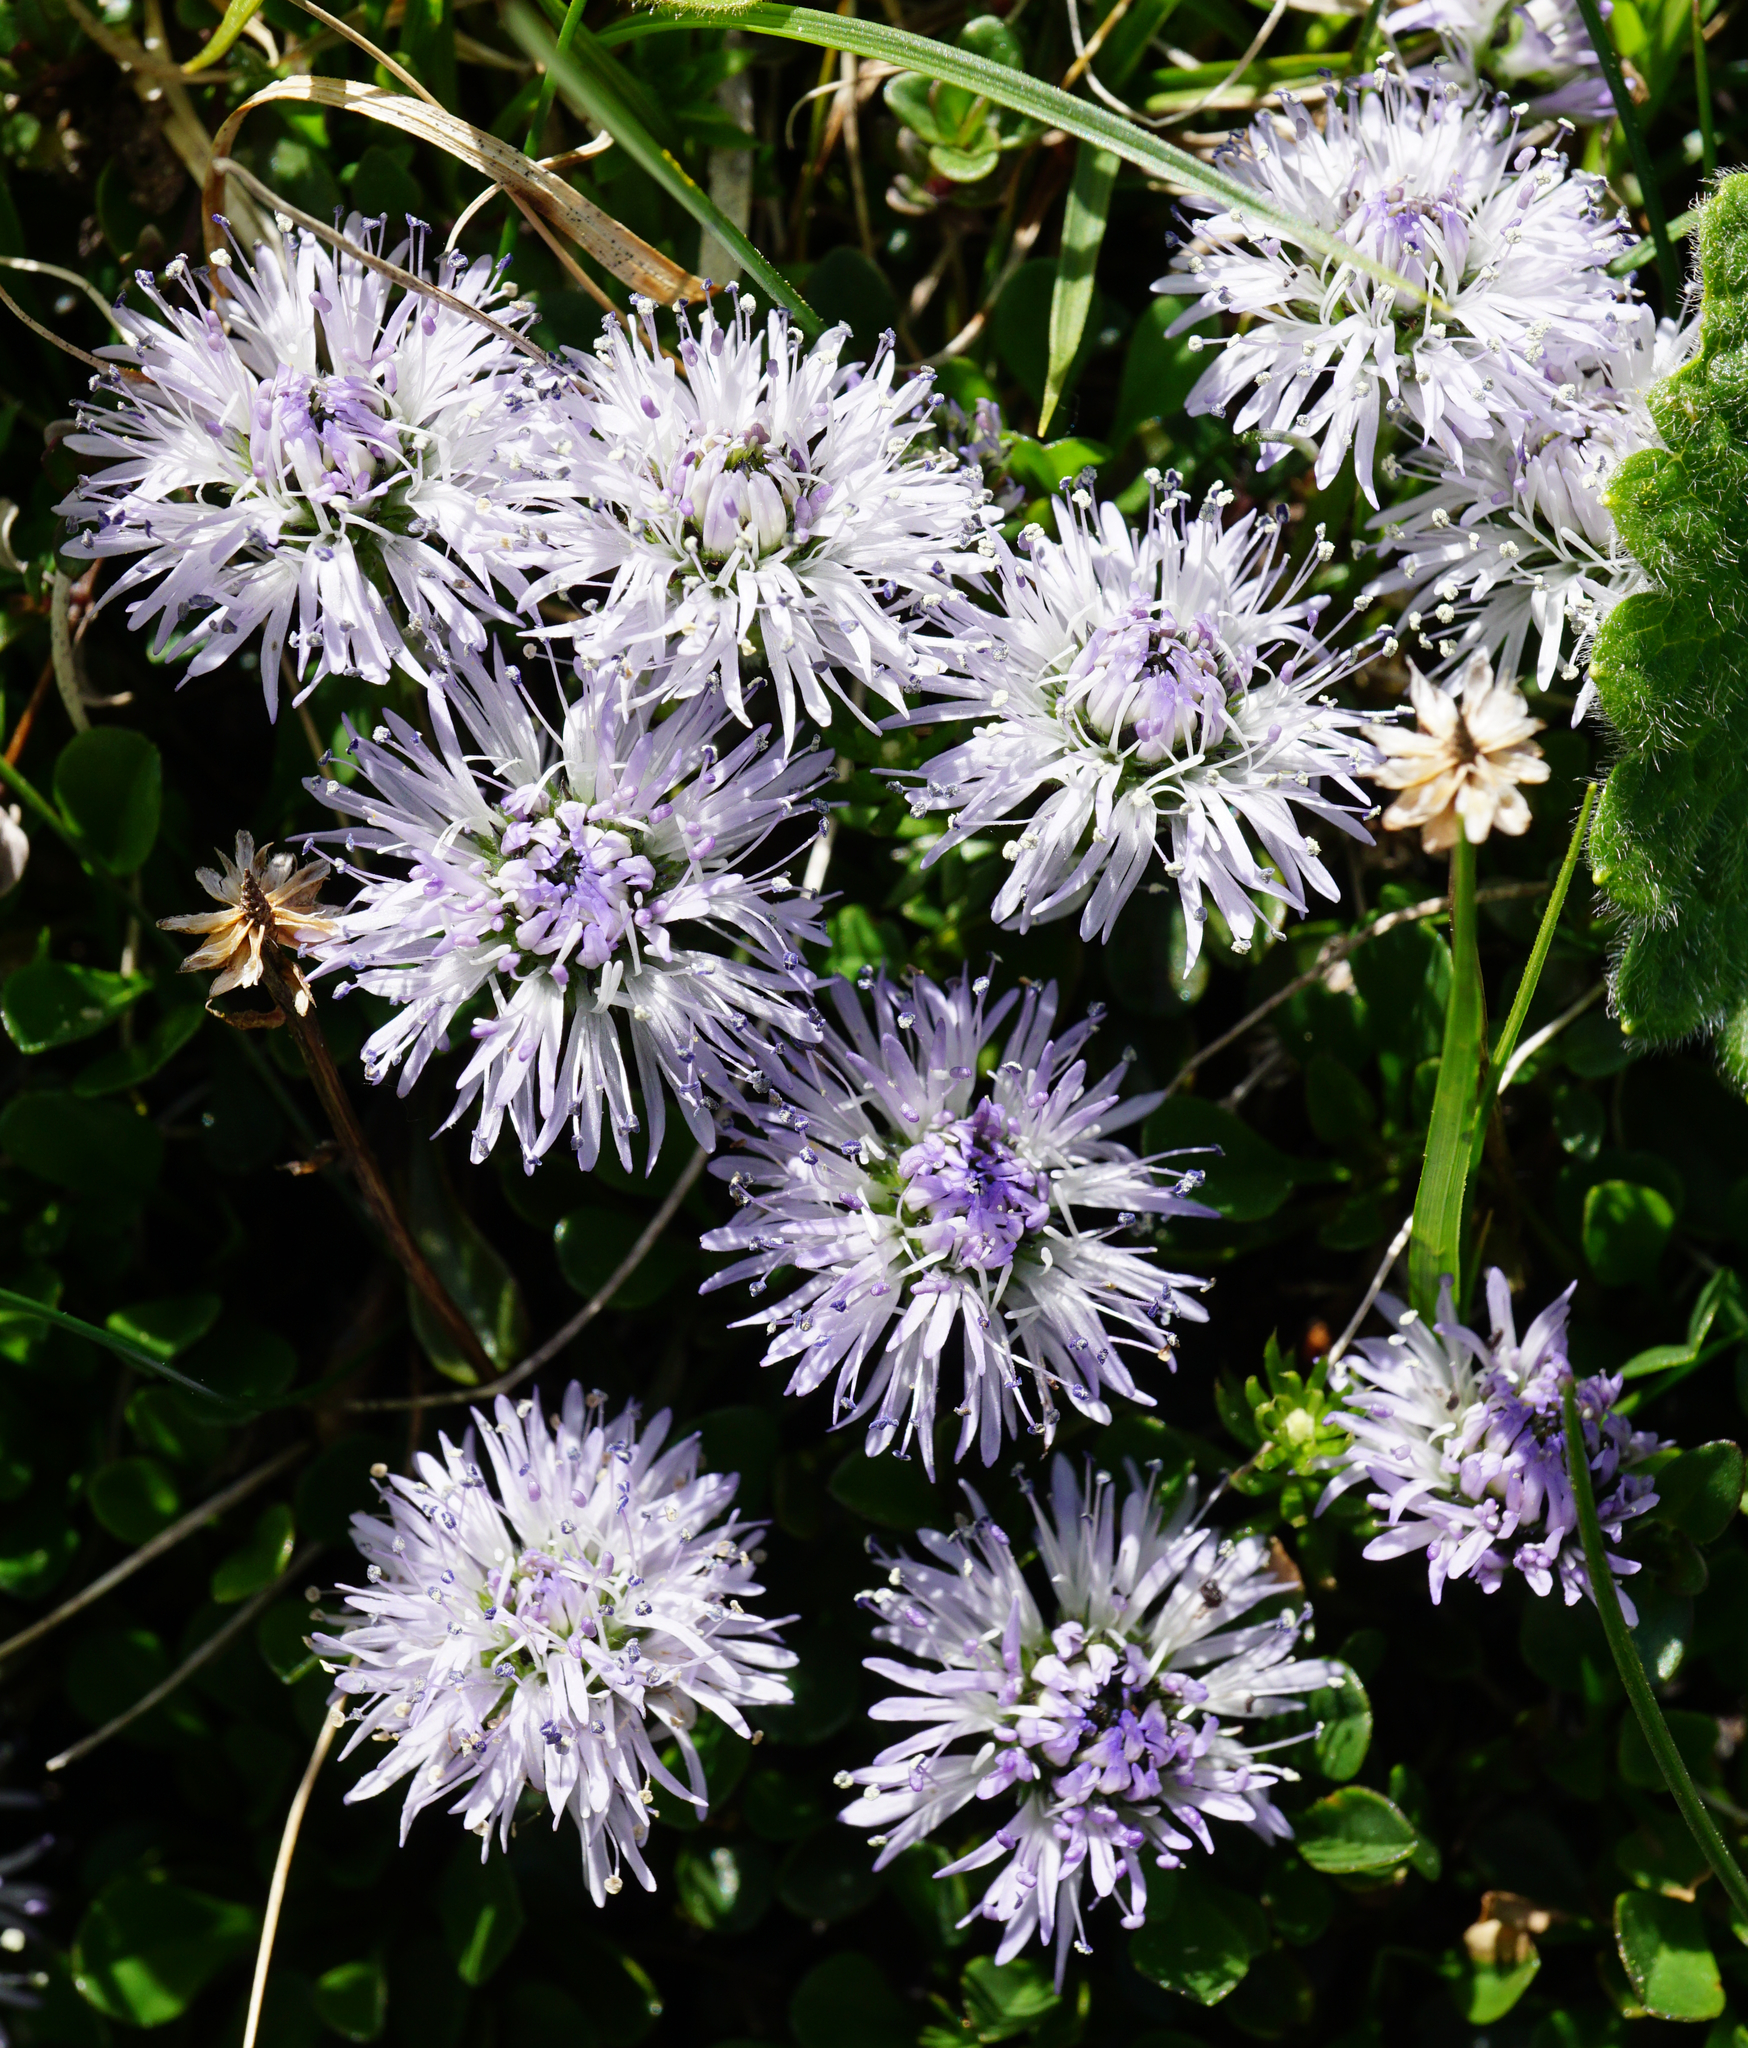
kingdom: Plantae
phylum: Tracheophyta
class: Magnoliopsida
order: Lamiales
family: Plantaginaceae
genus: Globularia
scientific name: Globularia cordifolia
